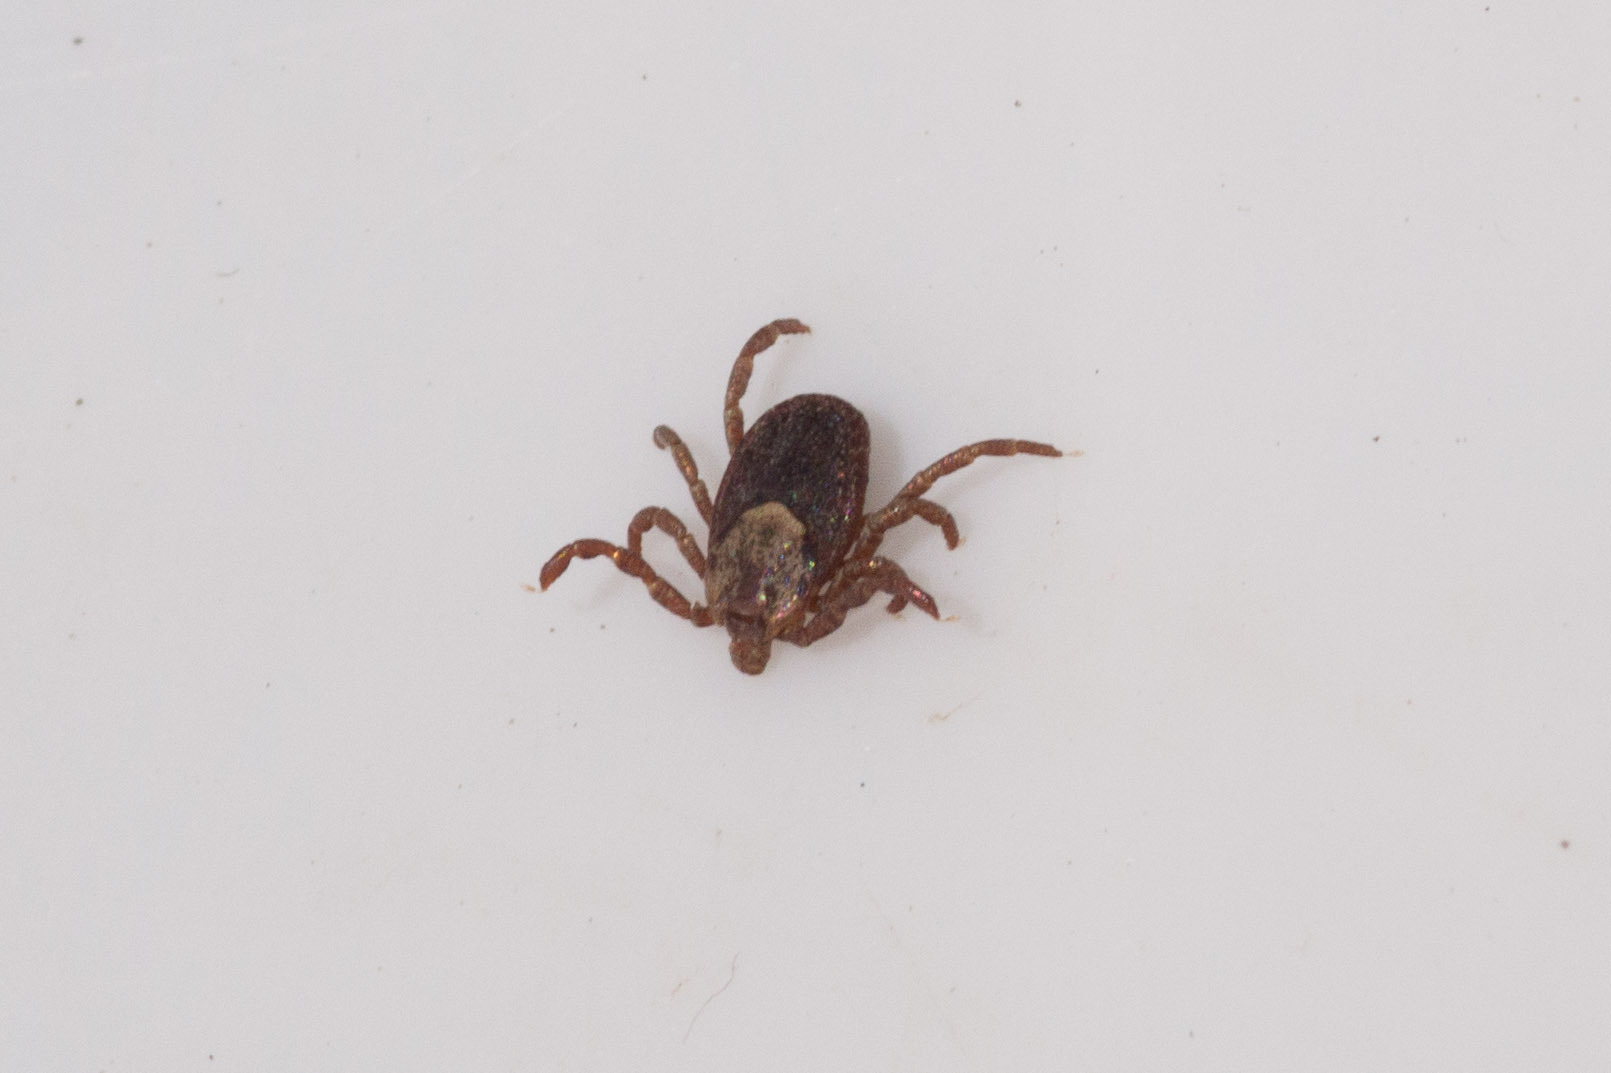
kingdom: Animalia
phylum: Arthropoda
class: Arachnida
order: Ixodida
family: Ixodidae
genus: Dermacentor
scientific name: Dermacentor occidentalis
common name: Net tick
